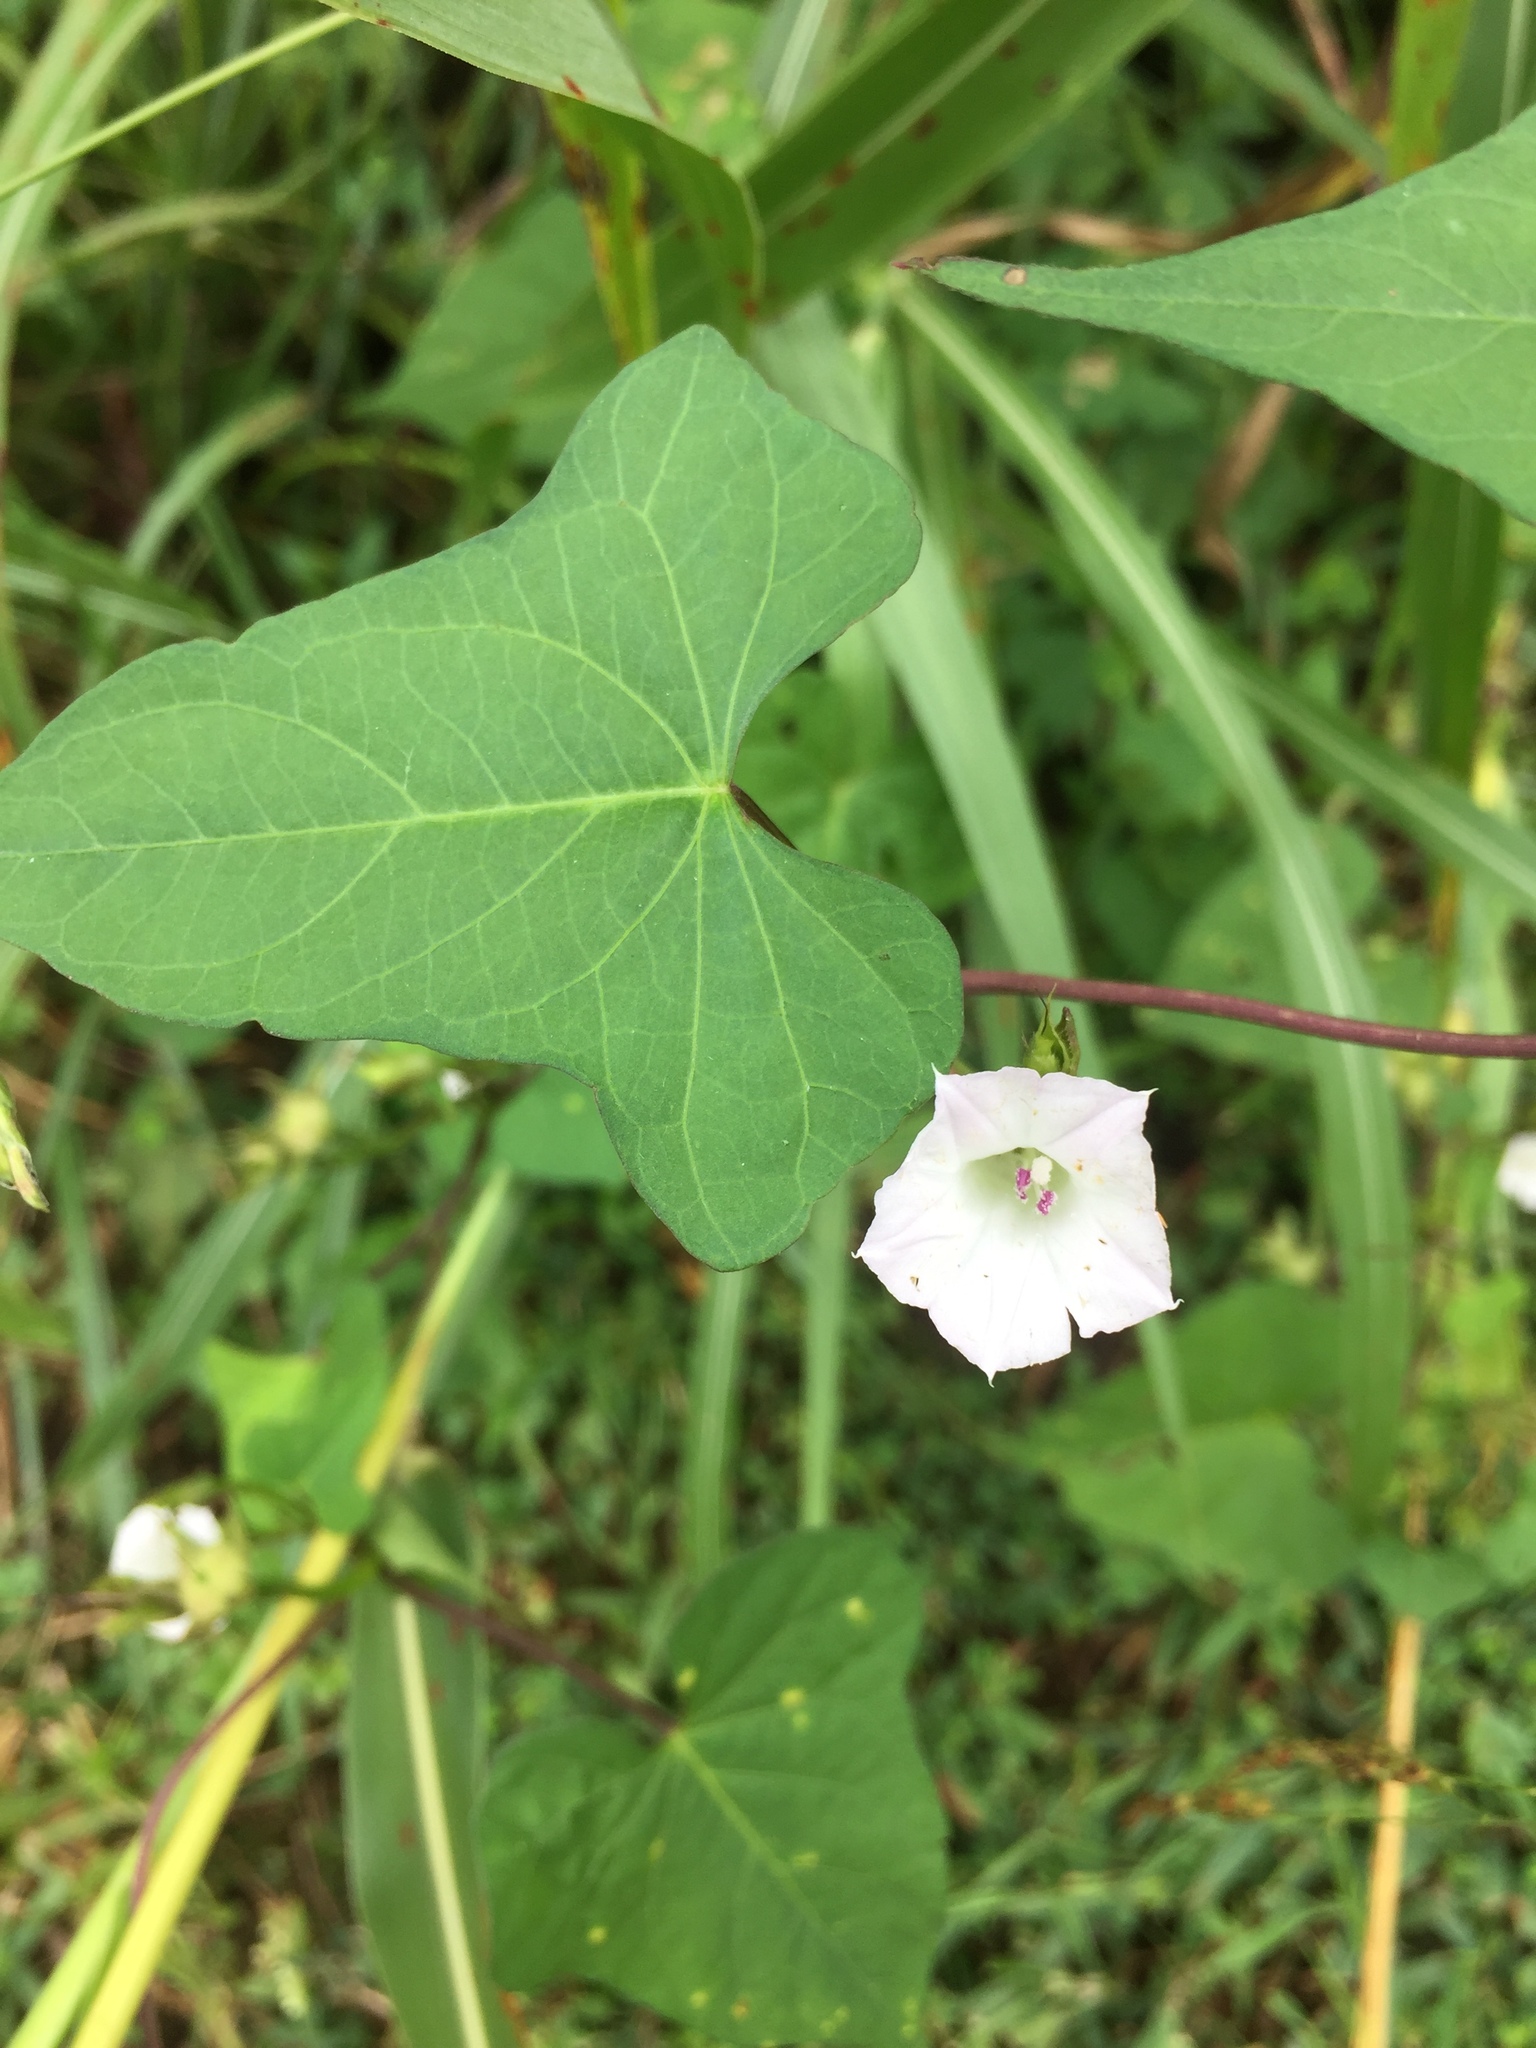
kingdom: Plantae
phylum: Tracheophyta
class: Magnoliopsida
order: Solanales
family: Convolvulaceae
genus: Ipomoea
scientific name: Ipomoea lacunosa
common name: White morning-glory
